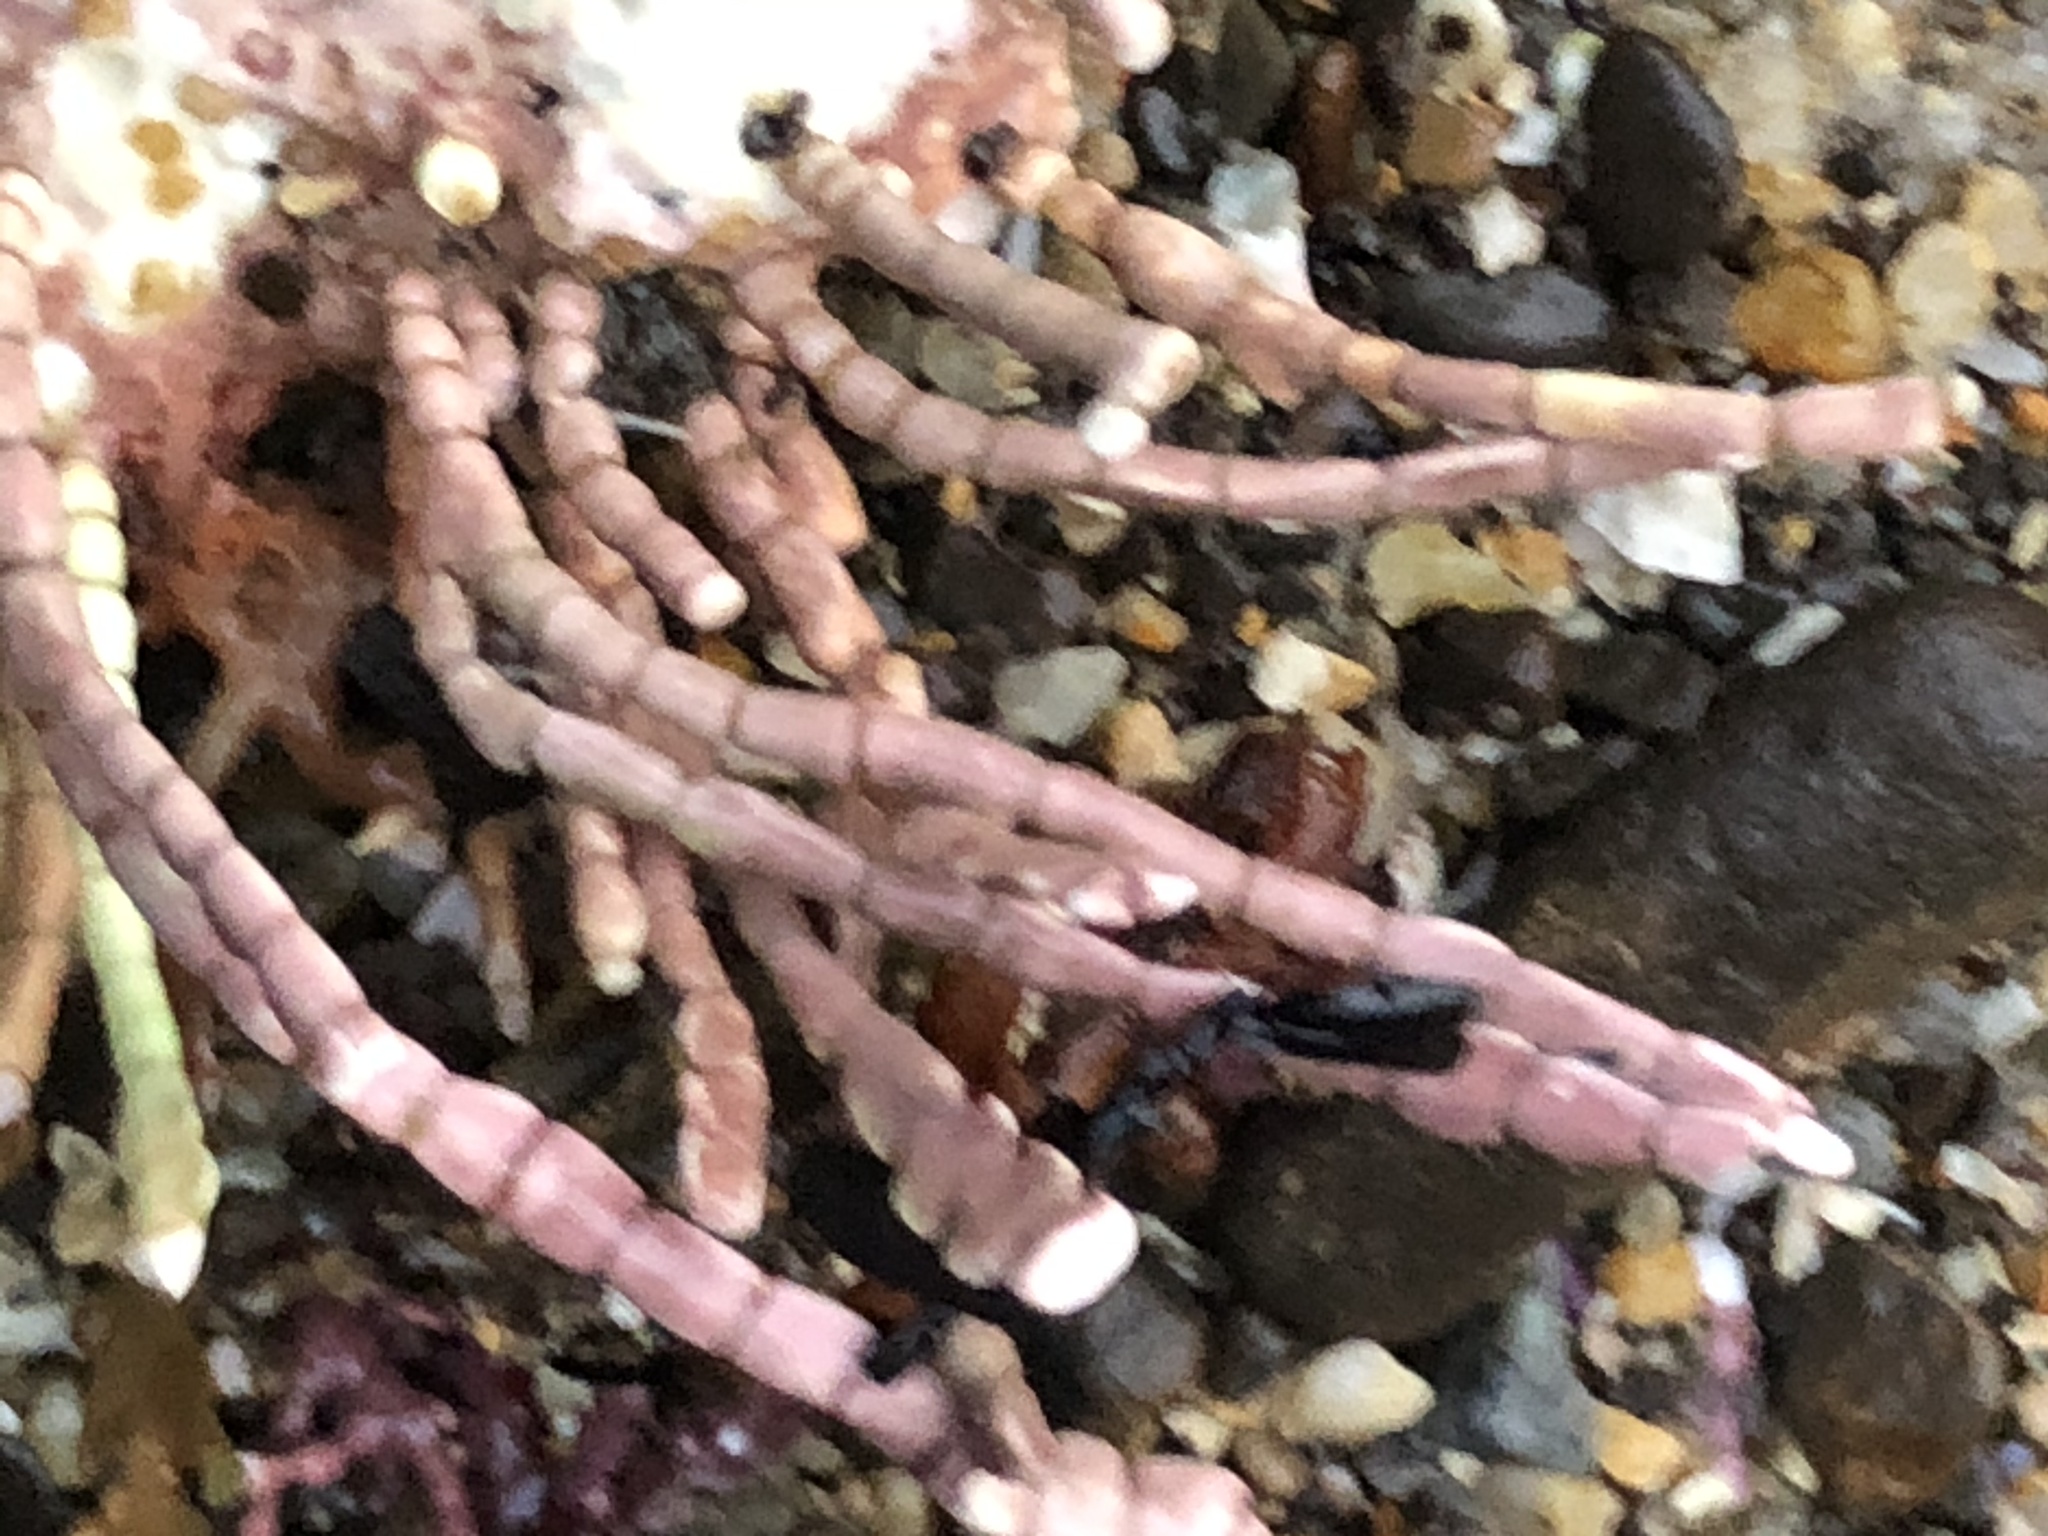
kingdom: Plantae
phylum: Rhodophyta
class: Florideophyceae
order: Corallinales
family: Corallinaceae
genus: Calliarthron
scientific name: Calliarthron tuberculosum
